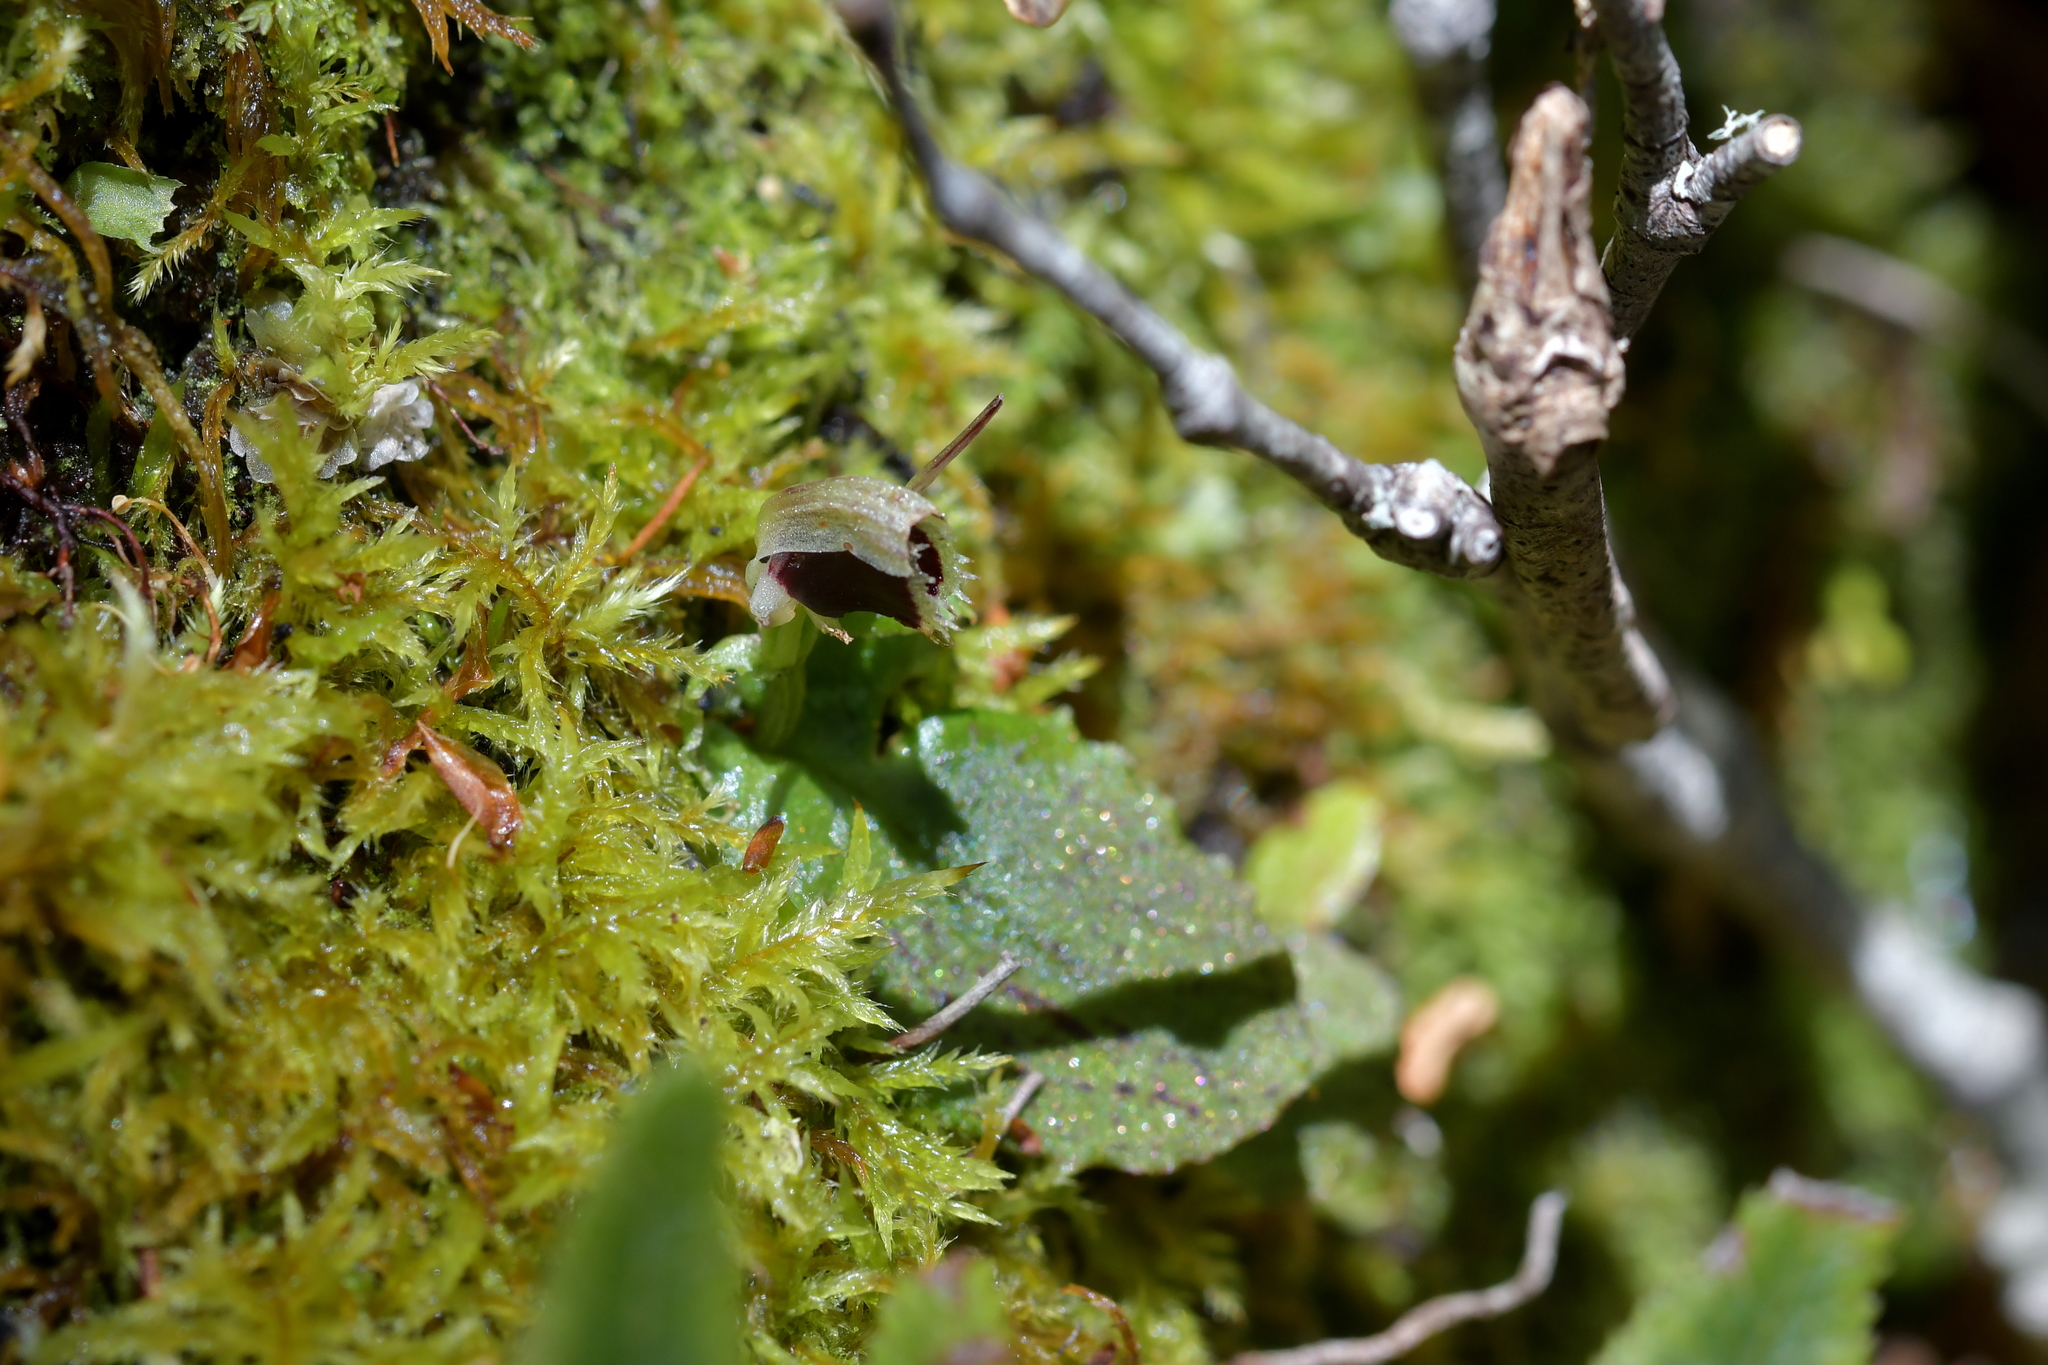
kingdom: Plantae
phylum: Tracheophyta
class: Liliopsida
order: Asparagales
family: Orchidaceae
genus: Corybas
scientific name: Corybas oblongus
